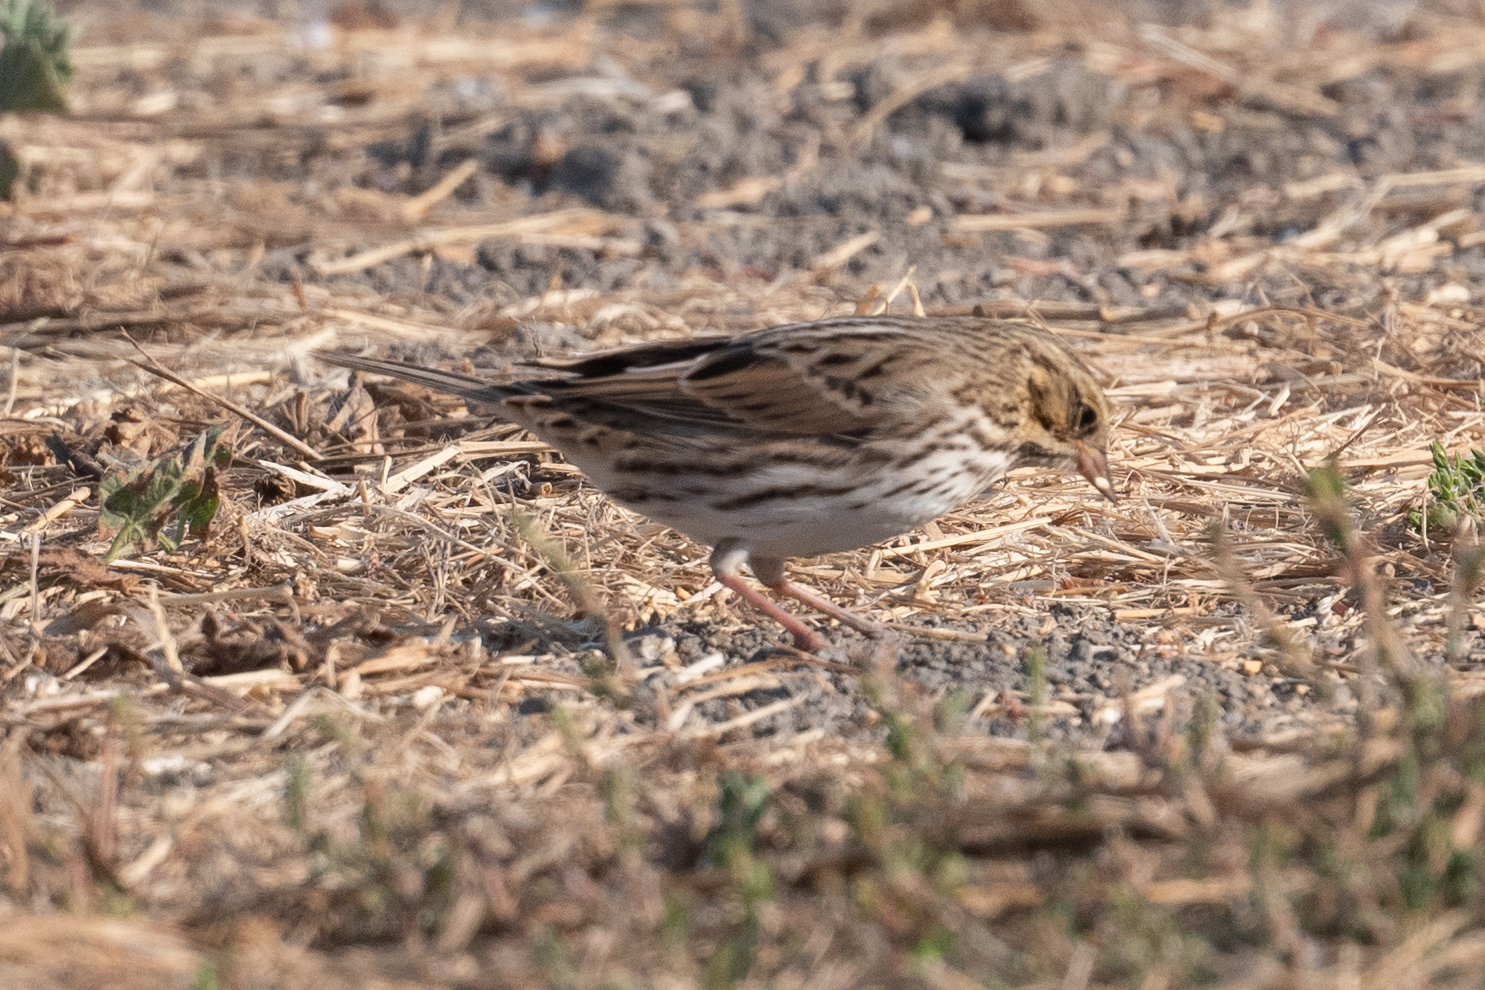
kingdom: Animalia
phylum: Chordata
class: Aves
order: Passeriformes
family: Passerellidae
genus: Passerculus
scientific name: Passerculus sandwichensis
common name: Savannah sparrow
